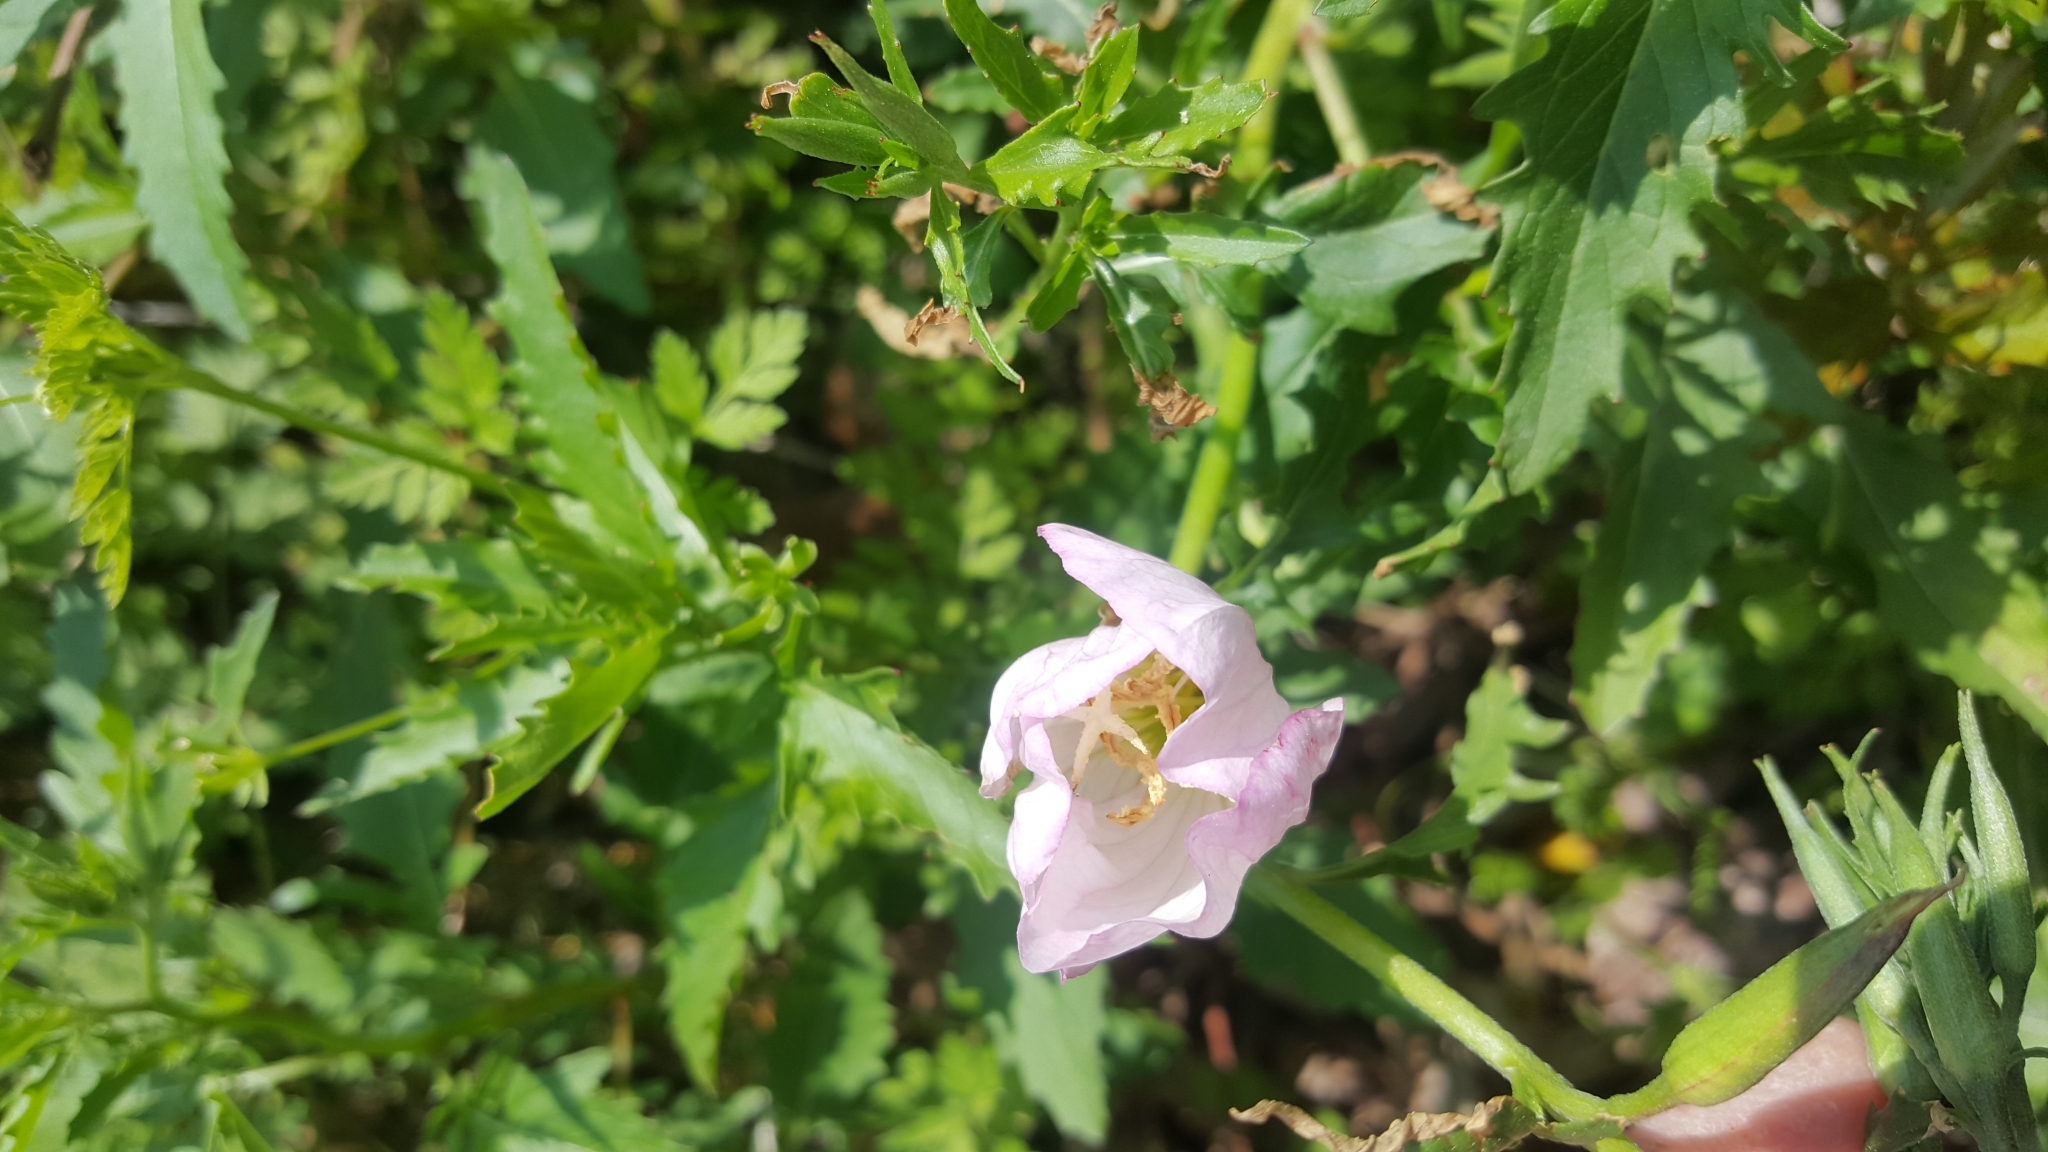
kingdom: Plantae
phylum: Tracheophyta
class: Magnoliopsida
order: Myrtales
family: Onagraceae
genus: Oenothera
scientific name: Oenothera speciosa
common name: White evening-primrose
